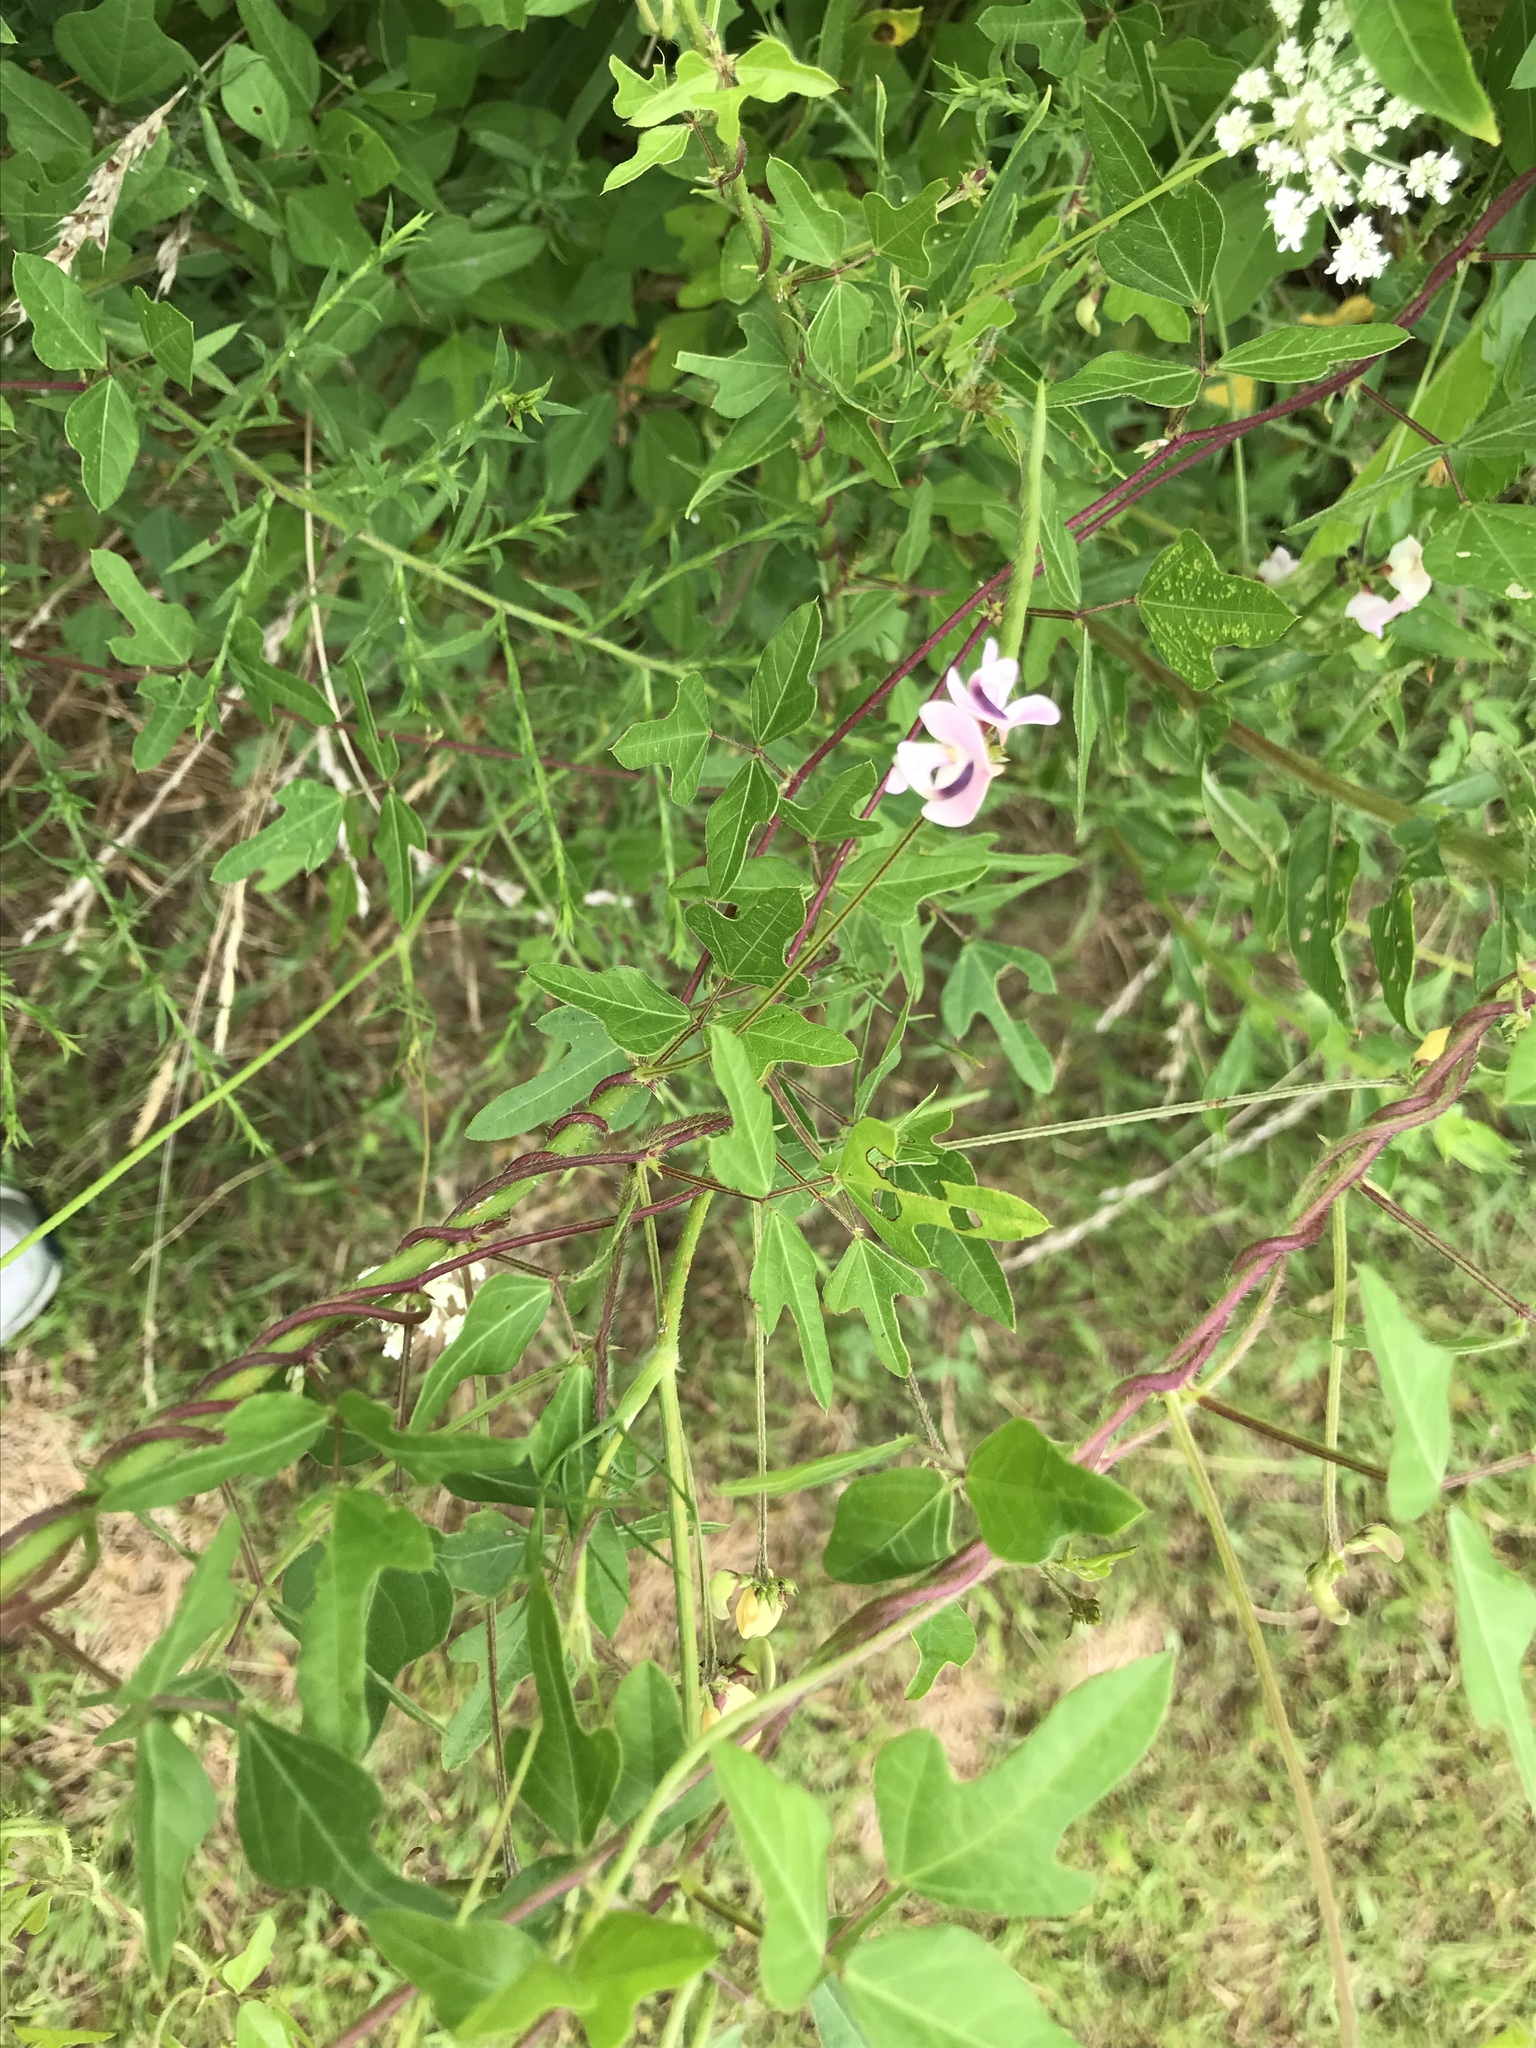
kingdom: Plantae
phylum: Tracheophyta
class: Magnoliopsida
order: Fabales
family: Fabaceae
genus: Strophostyles
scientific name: Strophostyles helvola
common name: Trailing wild bean
